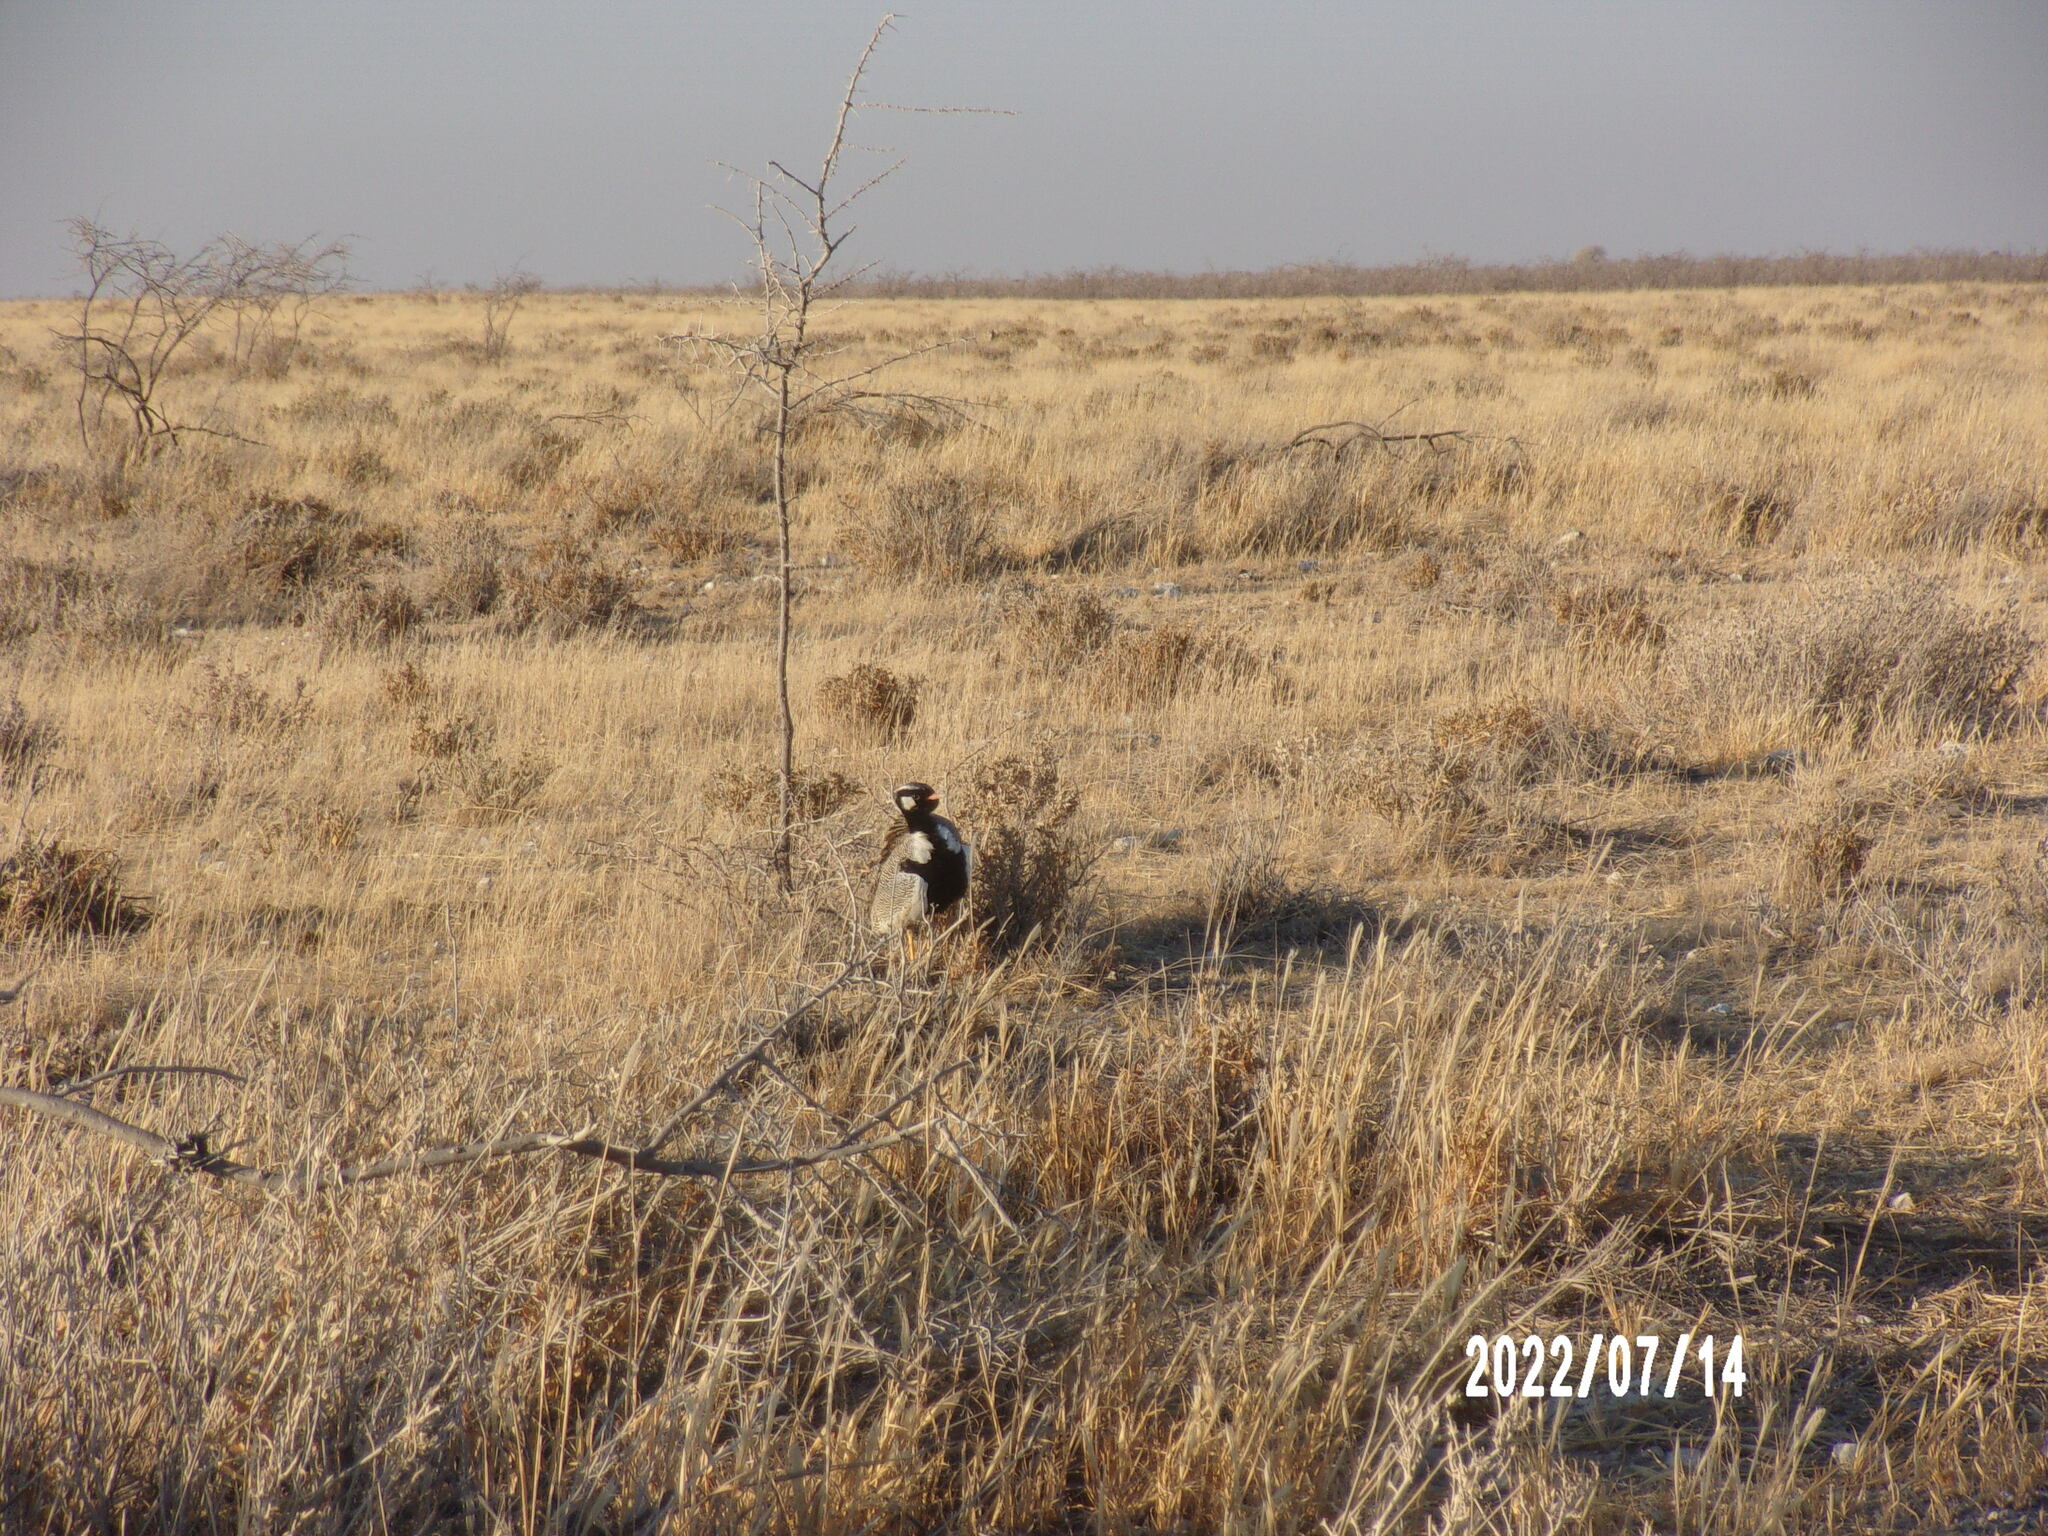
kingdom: Animalia
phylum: Chordata
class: Aves
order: Otidiformes
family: Otididae
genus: Afrotis
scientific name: Afrotis afraoides
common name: Northern black korhaan
